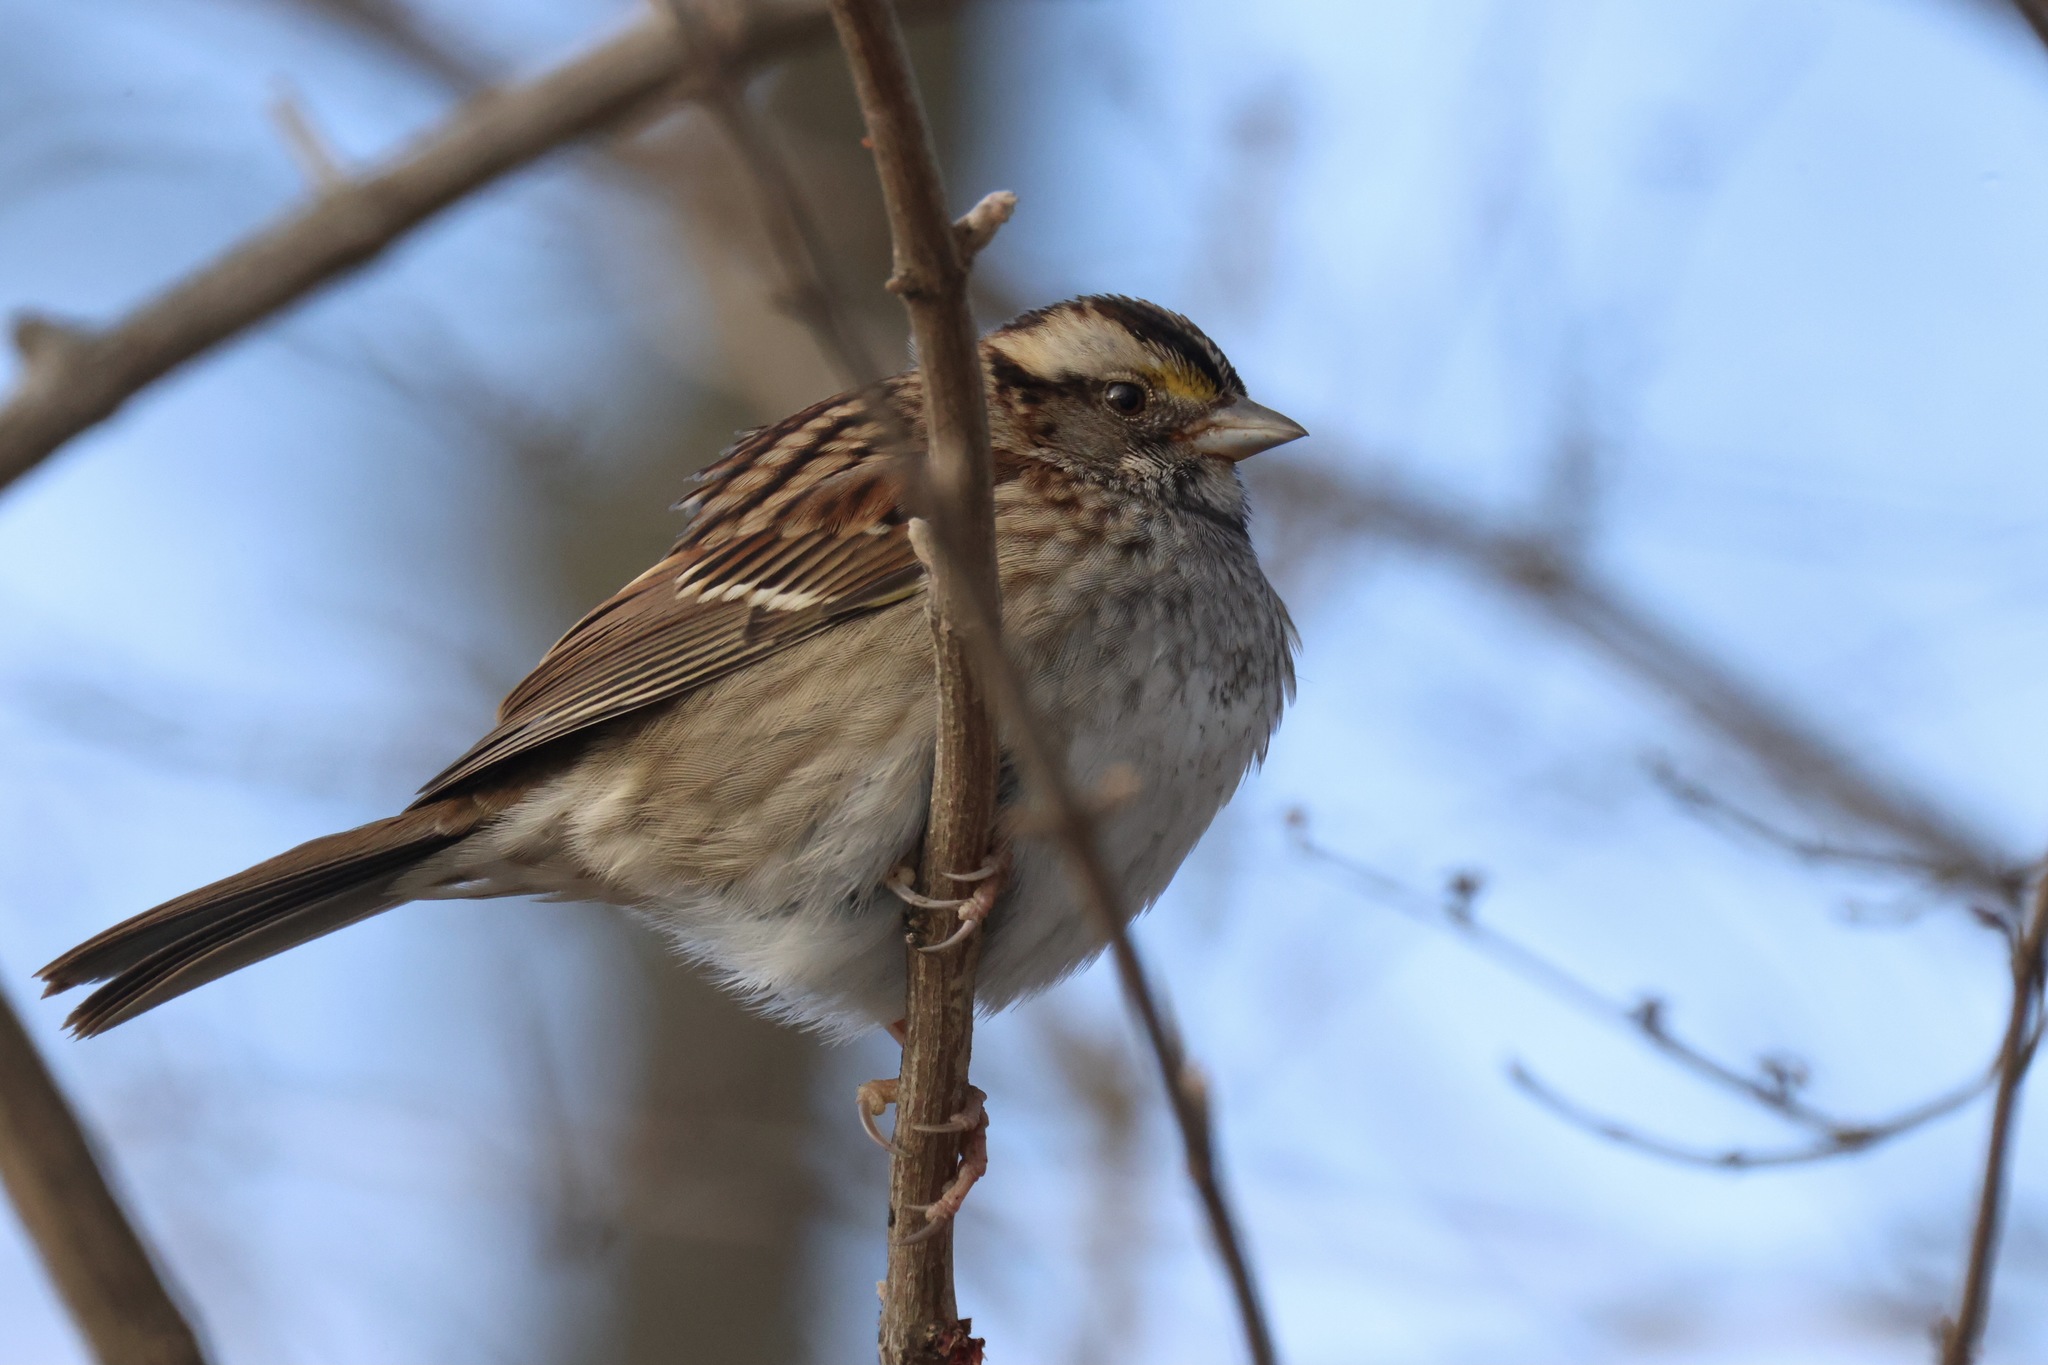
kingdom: Animalia
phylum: Chordata
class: Aves
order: Passeriformes
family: Passerellidae
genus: Zonotrichia
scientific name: Zonotrichia albicollis
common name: White-throated sparrow
